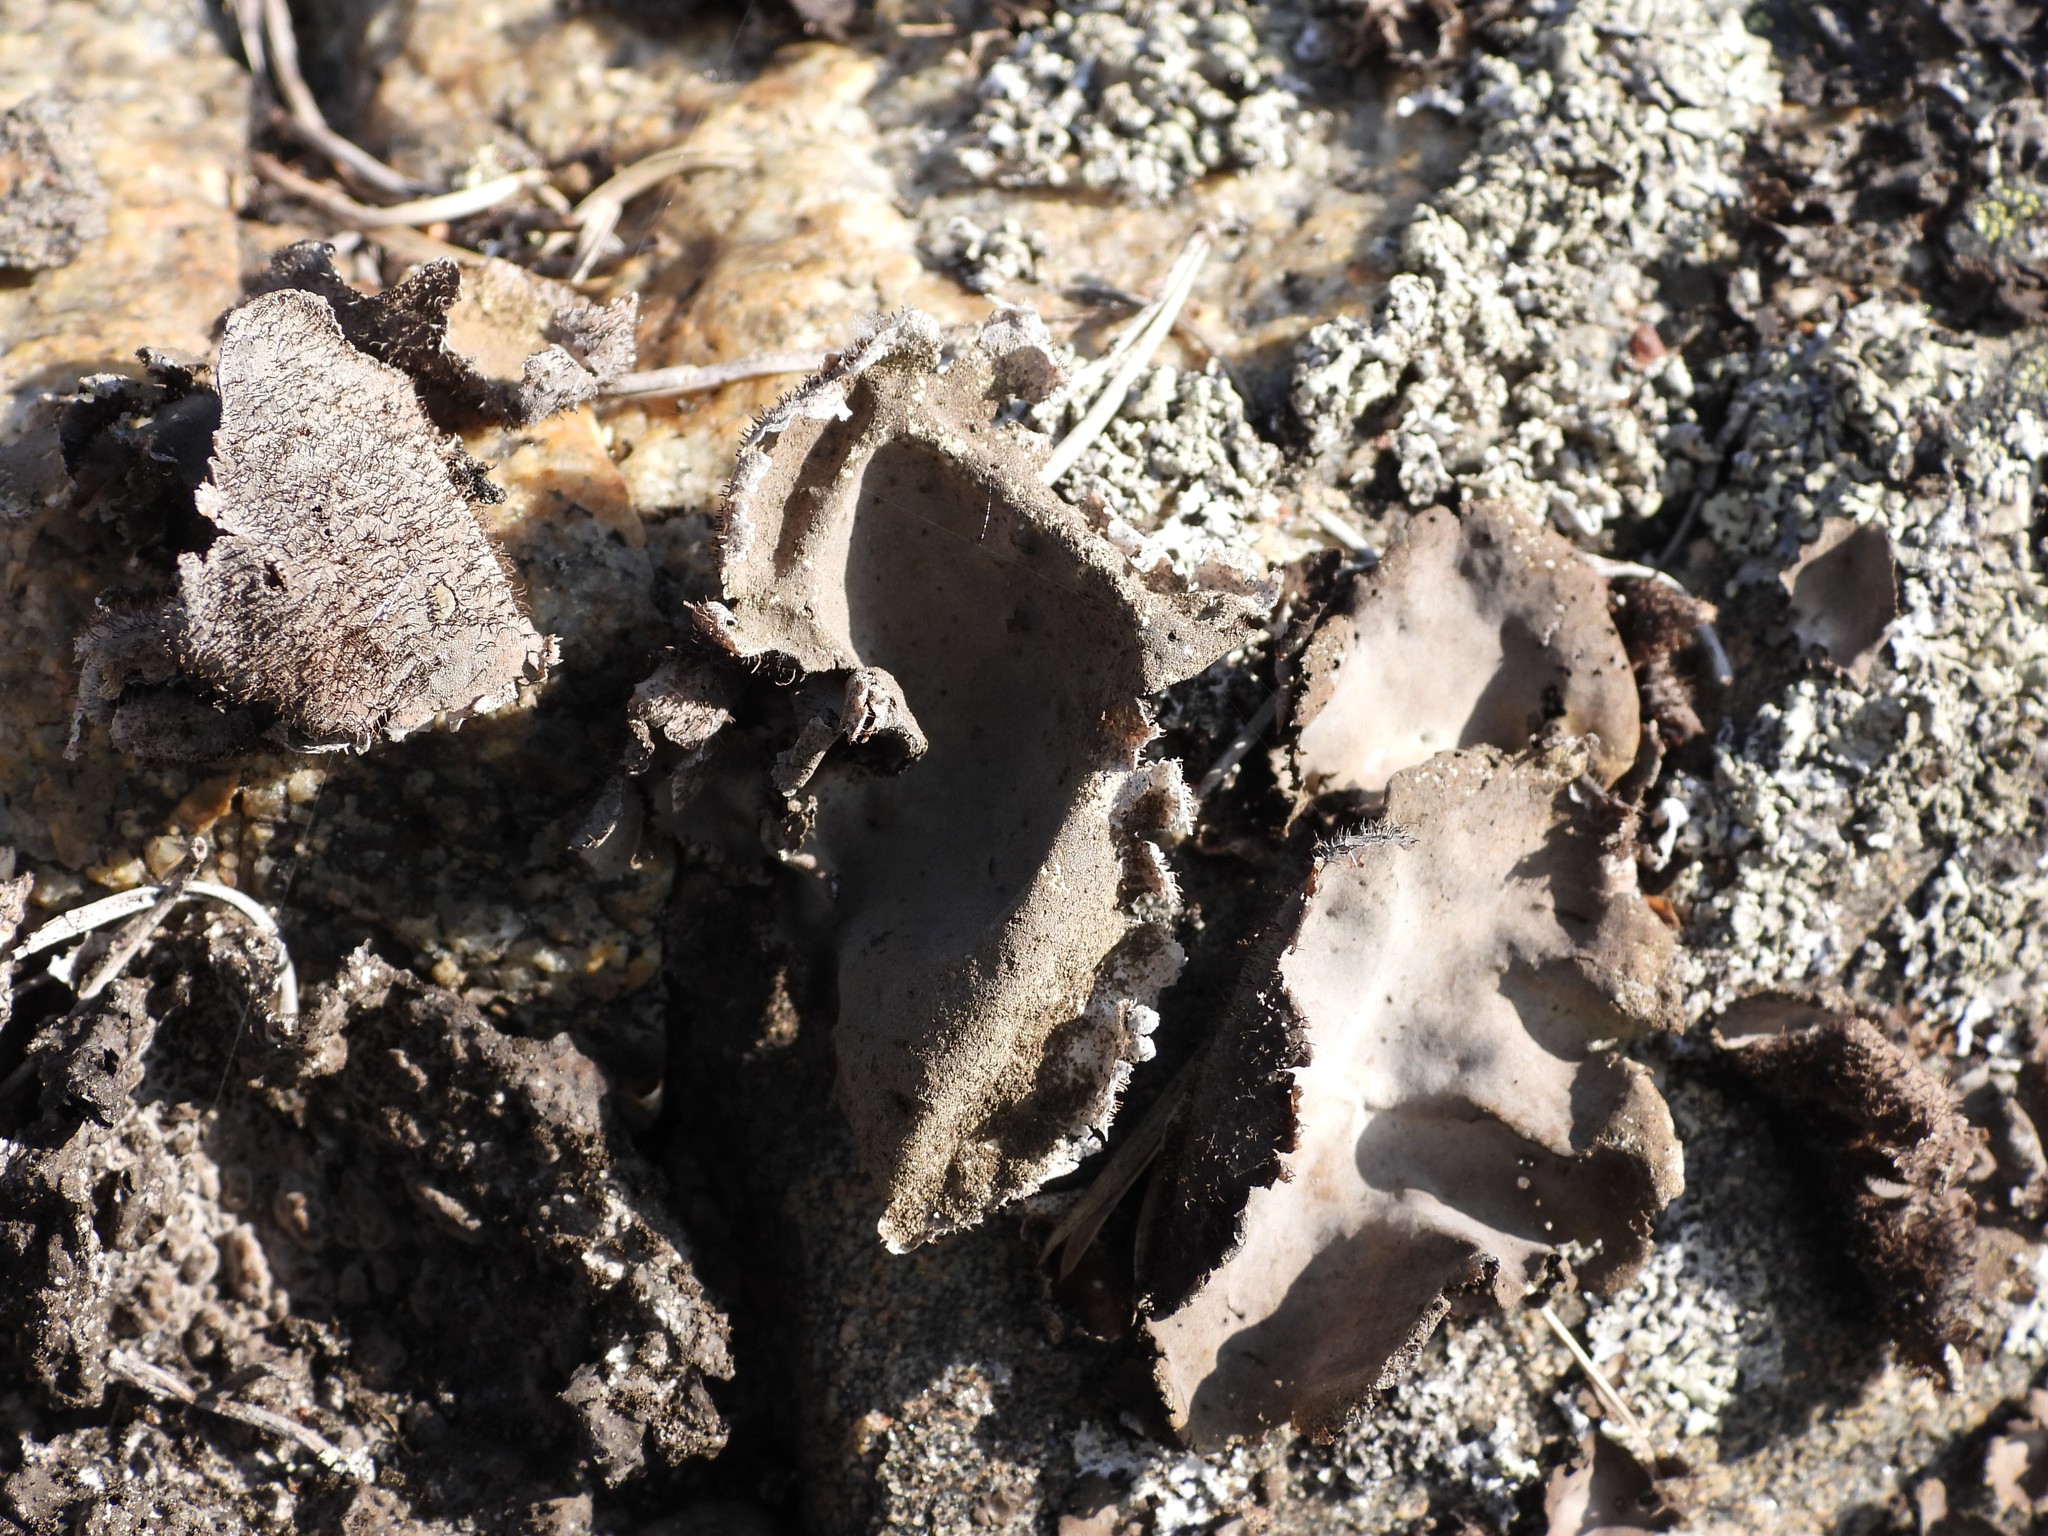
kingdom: Fungi
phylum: Ascomycota
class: Lecanoromycetes
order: Umbilicariales
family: Umbilicariaceae
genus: Umbilicaria
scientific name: Umbilicaria hirsuta
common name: Granulating rocktripe lichen
